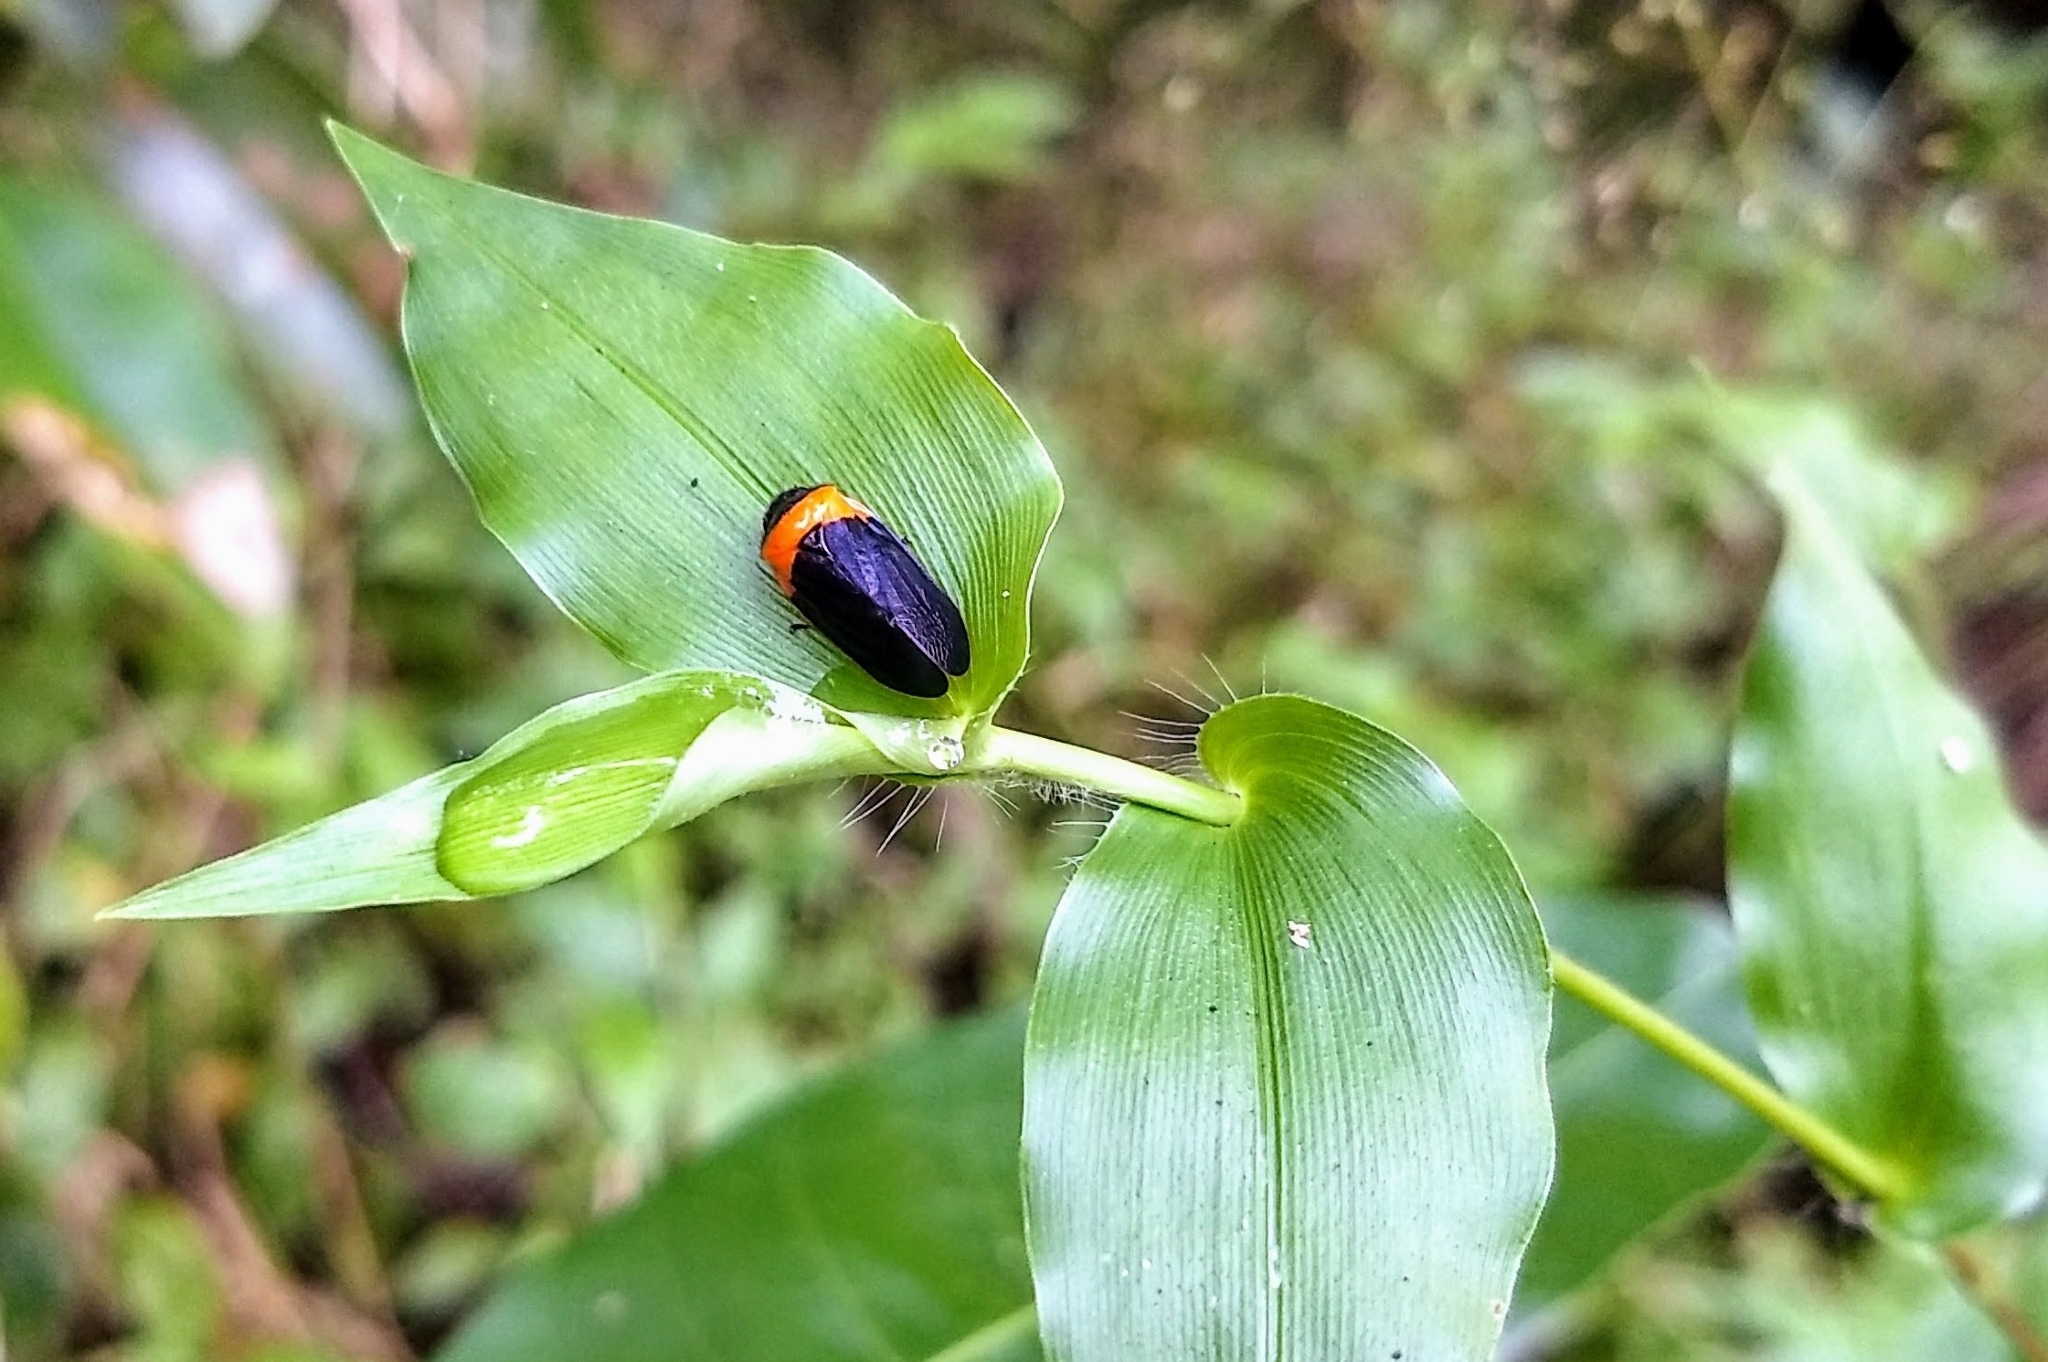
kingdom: Animalia
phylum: Arthropoda
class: Insecta
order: Hemiptera
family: Cercopidae
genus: Phymatostetha
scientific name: Phymatostetha deschampsi
